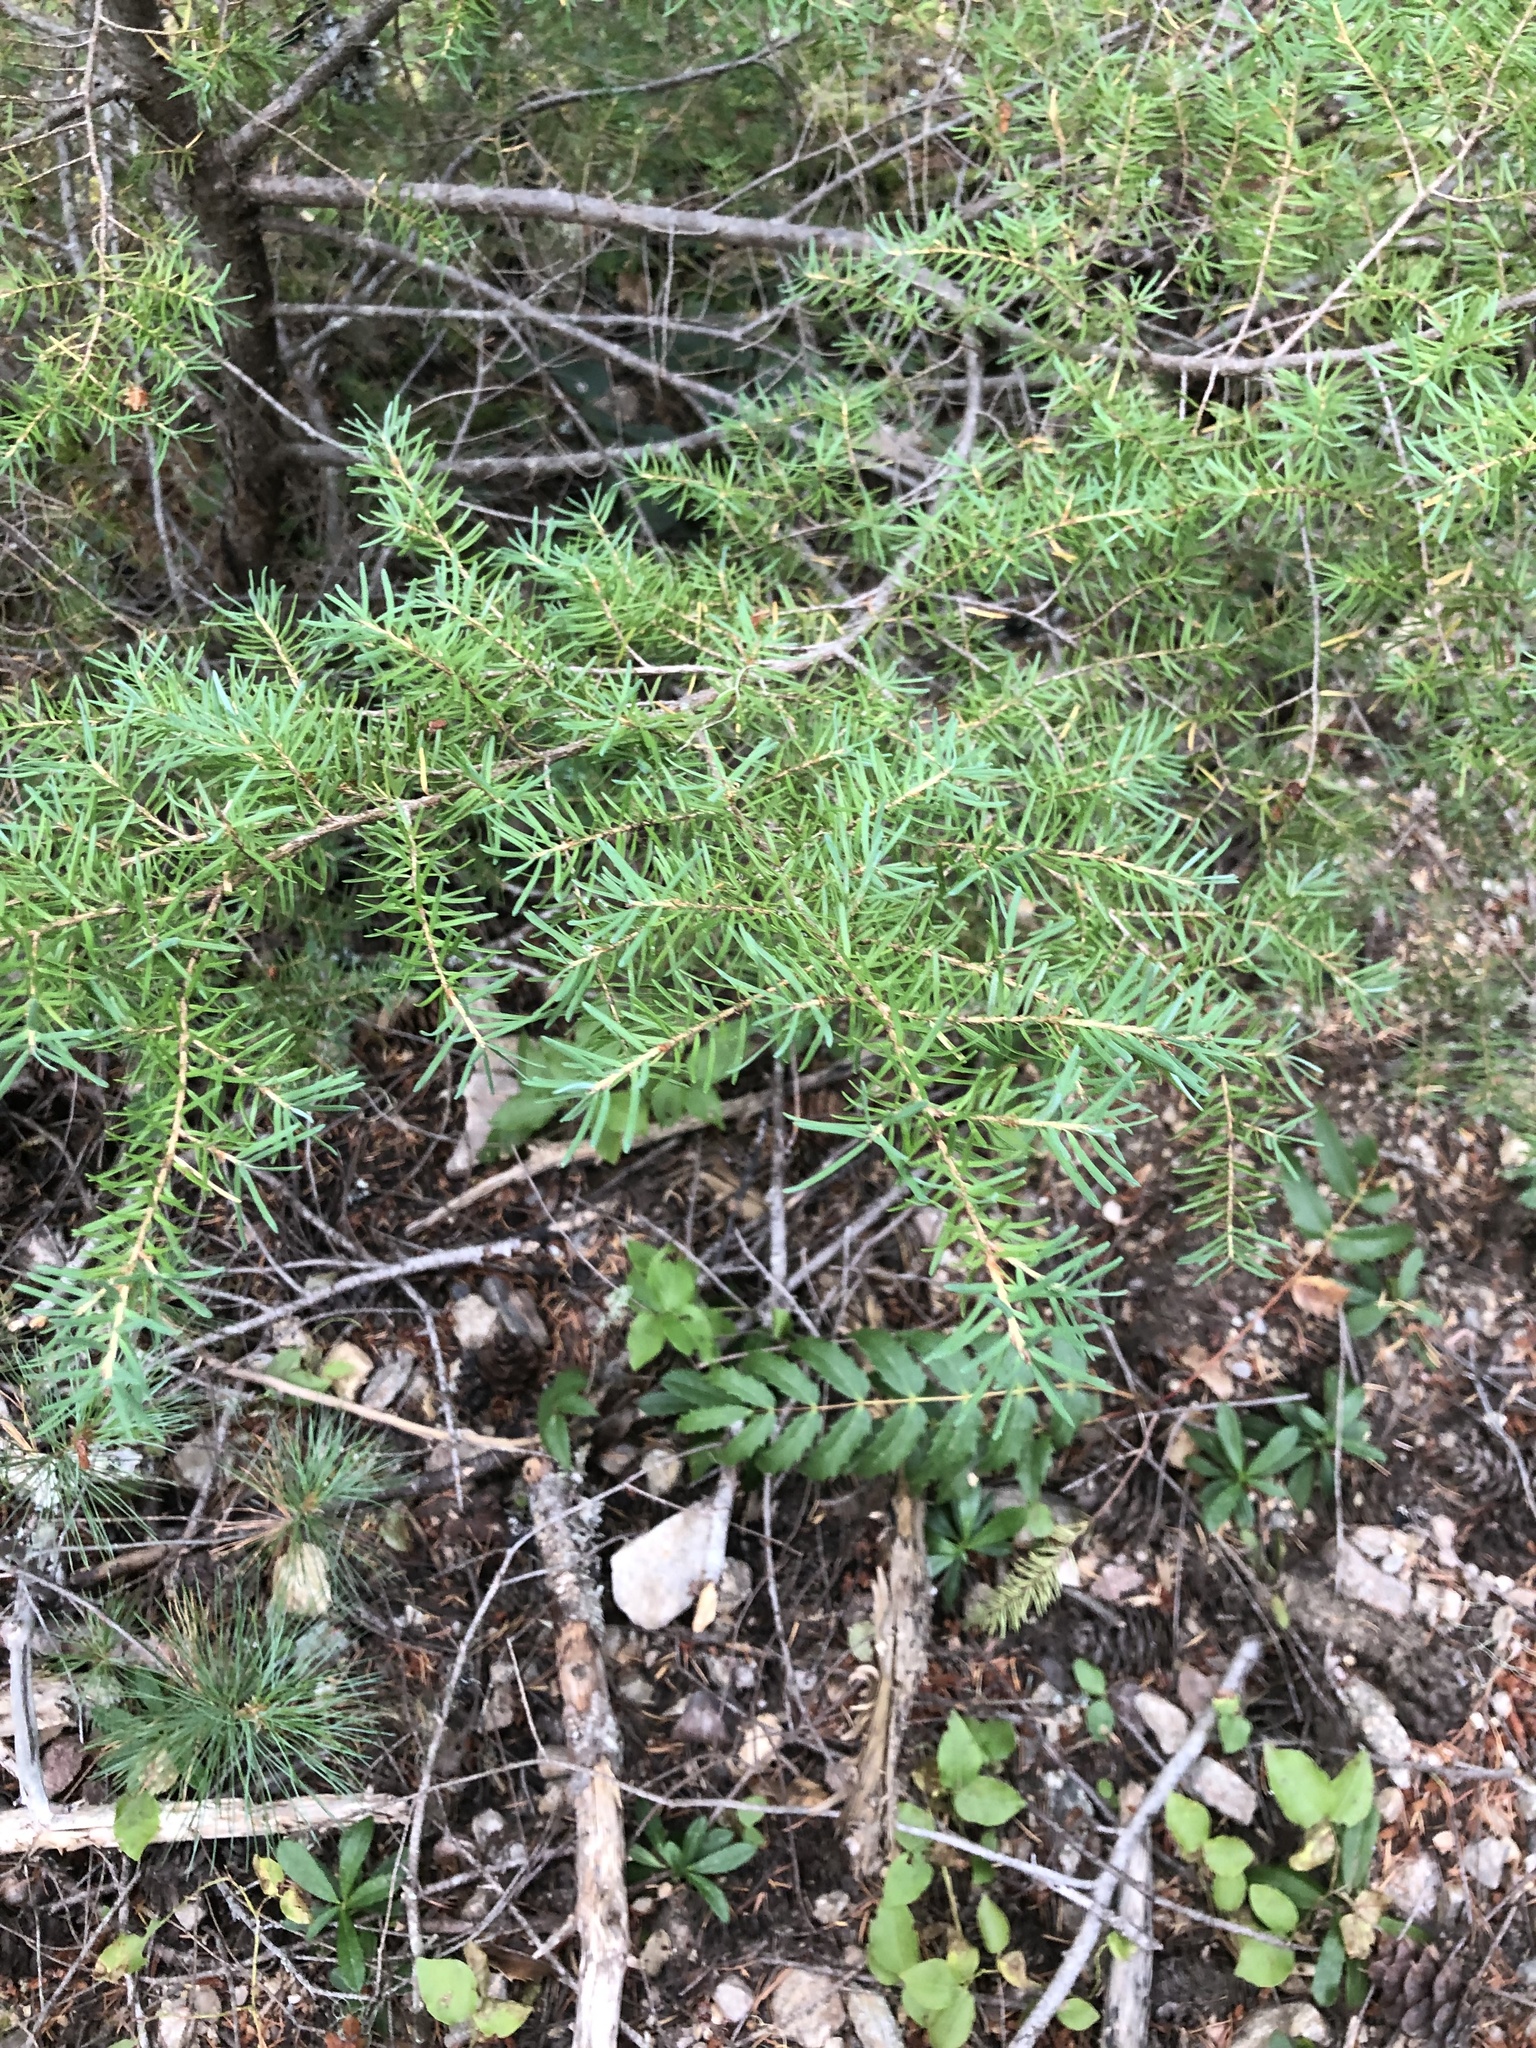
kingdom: Plantae
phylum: Tracheophyta
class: Pinopsida
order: Pinales
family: Pinaceae
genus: Tsuga
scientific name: Tsuga mertensiana
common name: Mountain hemlock
